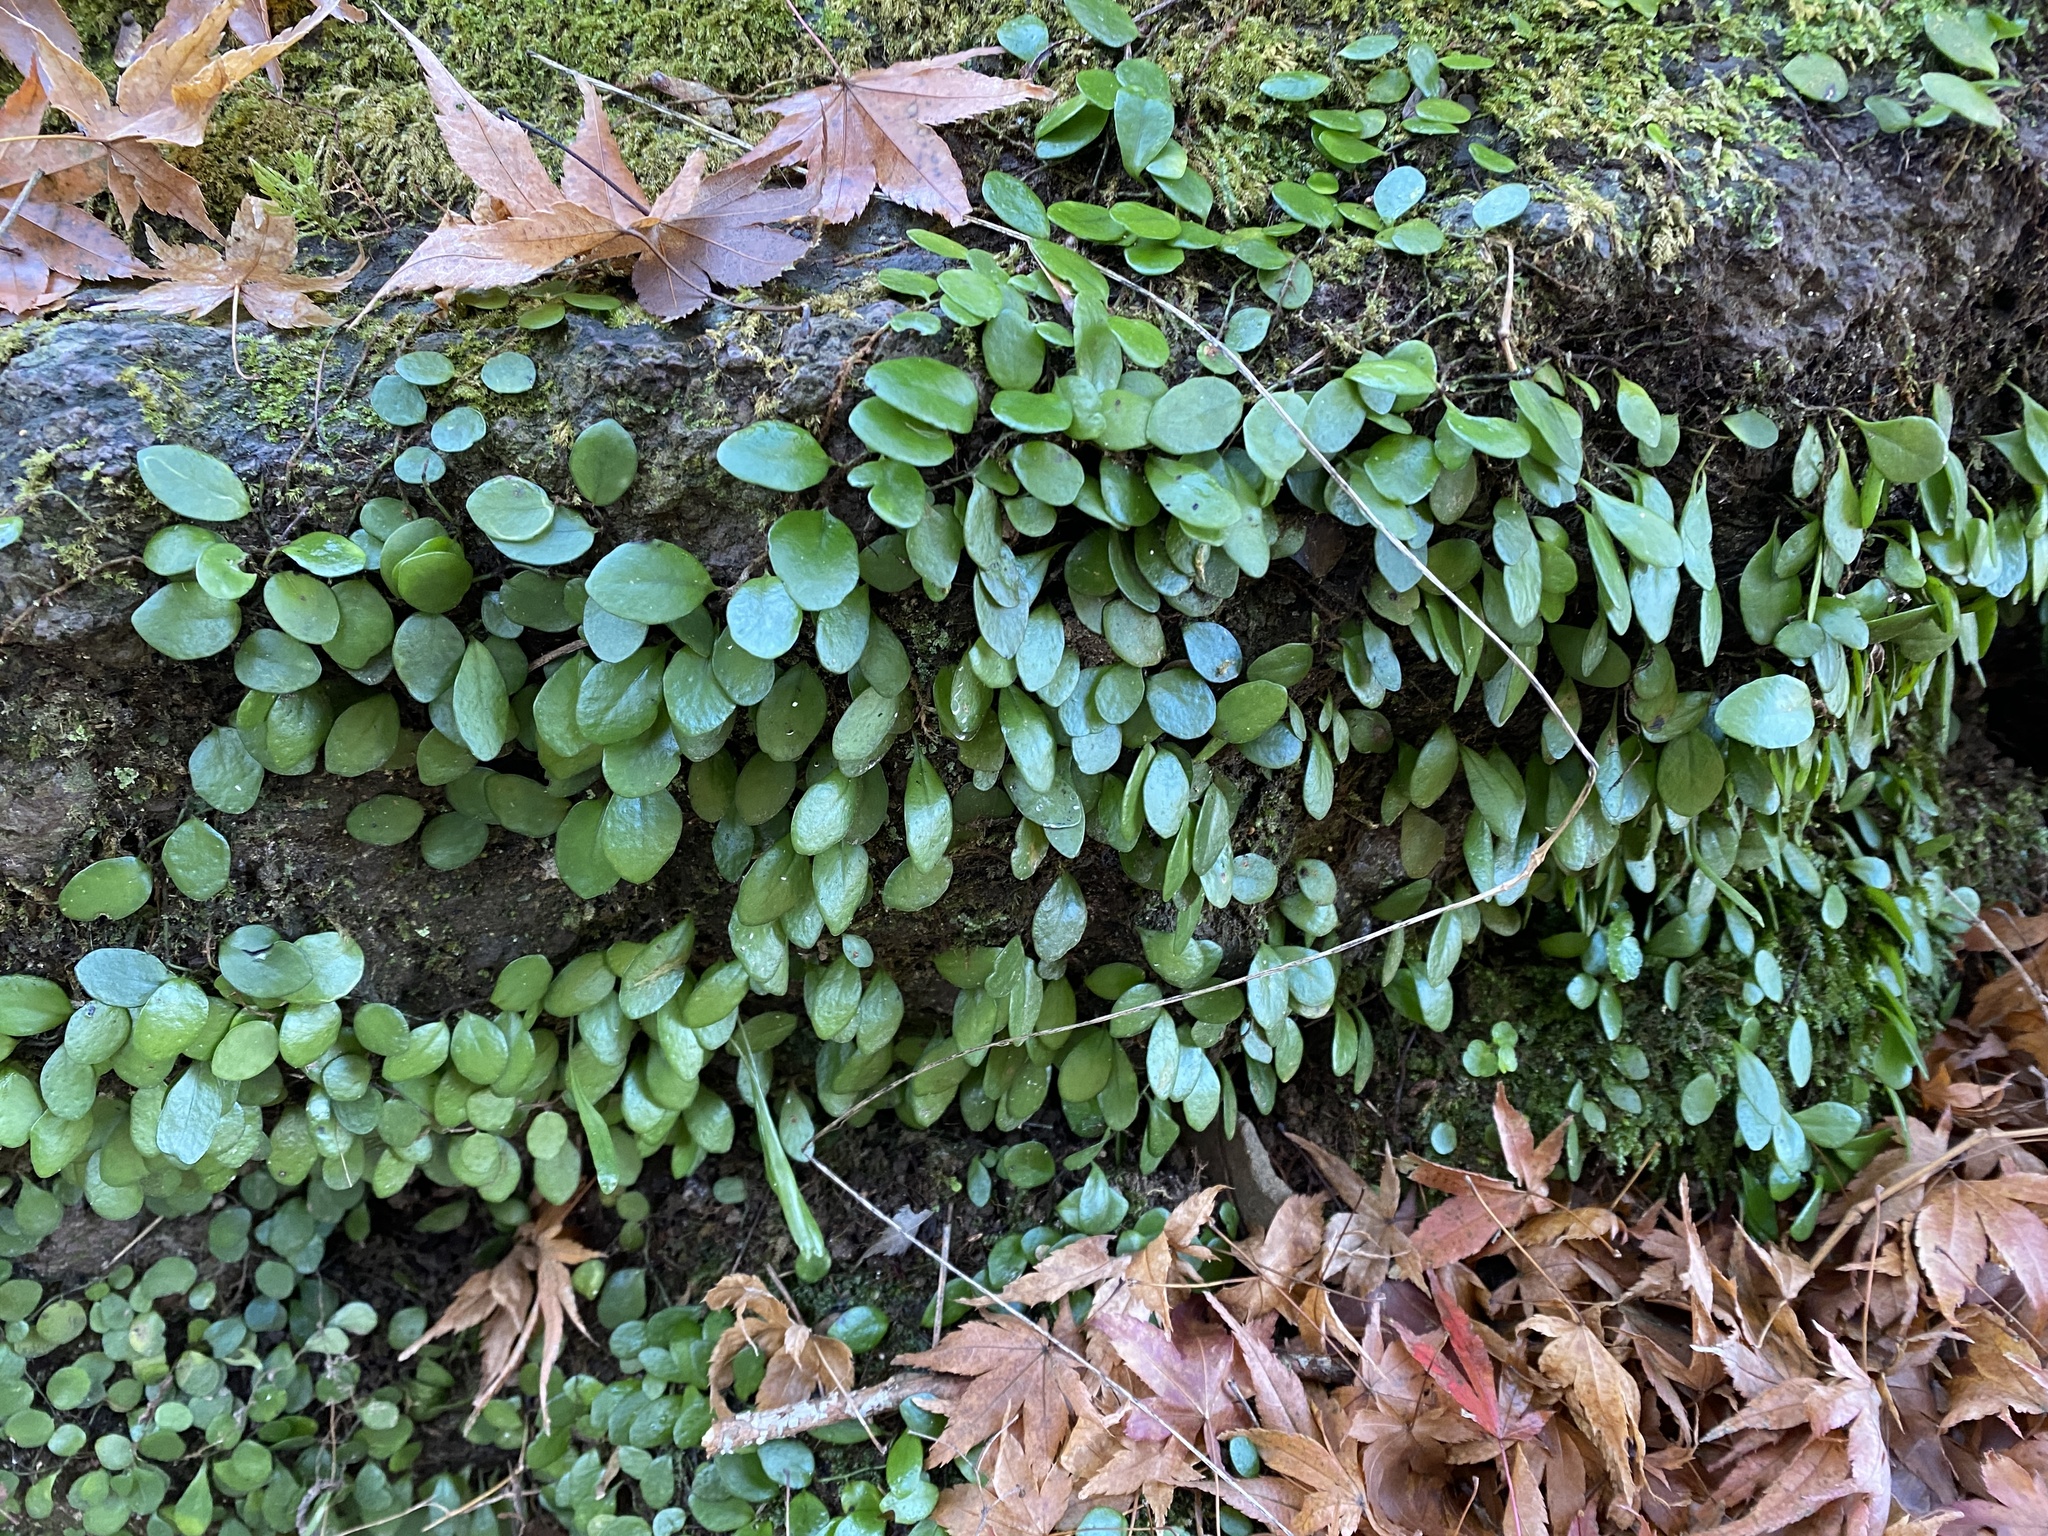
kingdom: Plantae
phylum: Tracheophyta
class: Polypodiopsida
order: Polypodiales
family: Polypodiaceae
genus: Lepisorus
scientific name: Lepisorus microphyllus
